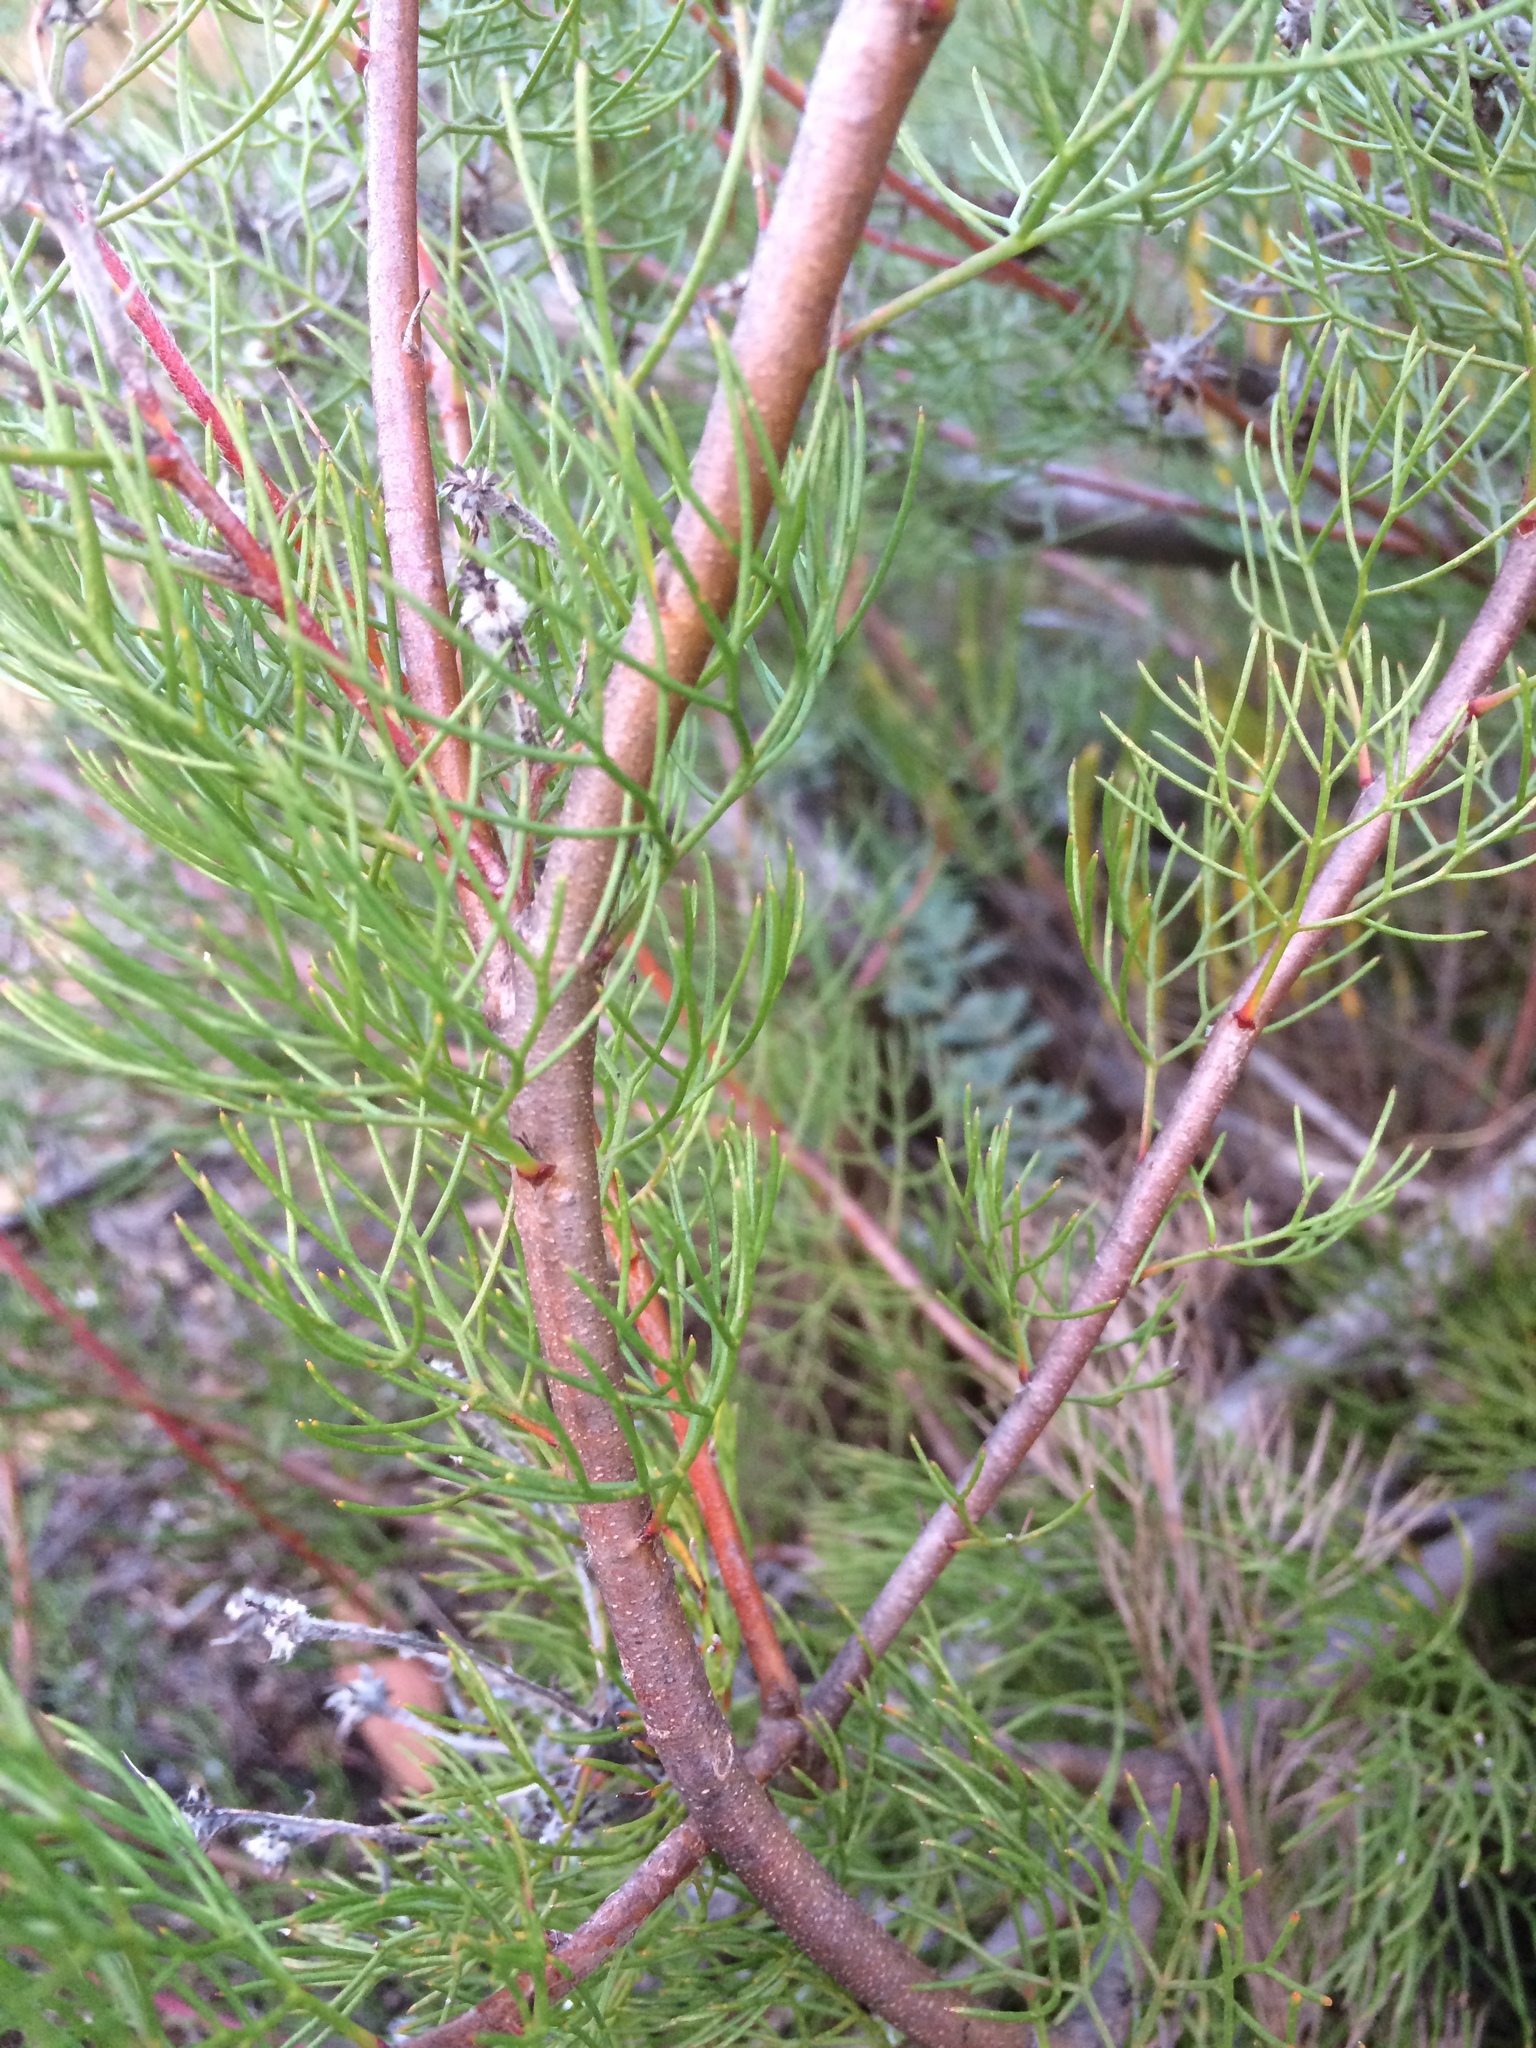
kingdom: Plantae
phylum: Tracheophyta
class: Magnoliopsida
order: Proteales
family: Proteaceae
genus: Serruria
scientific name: Serruria fasciflora
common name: Common pin spiderhead
